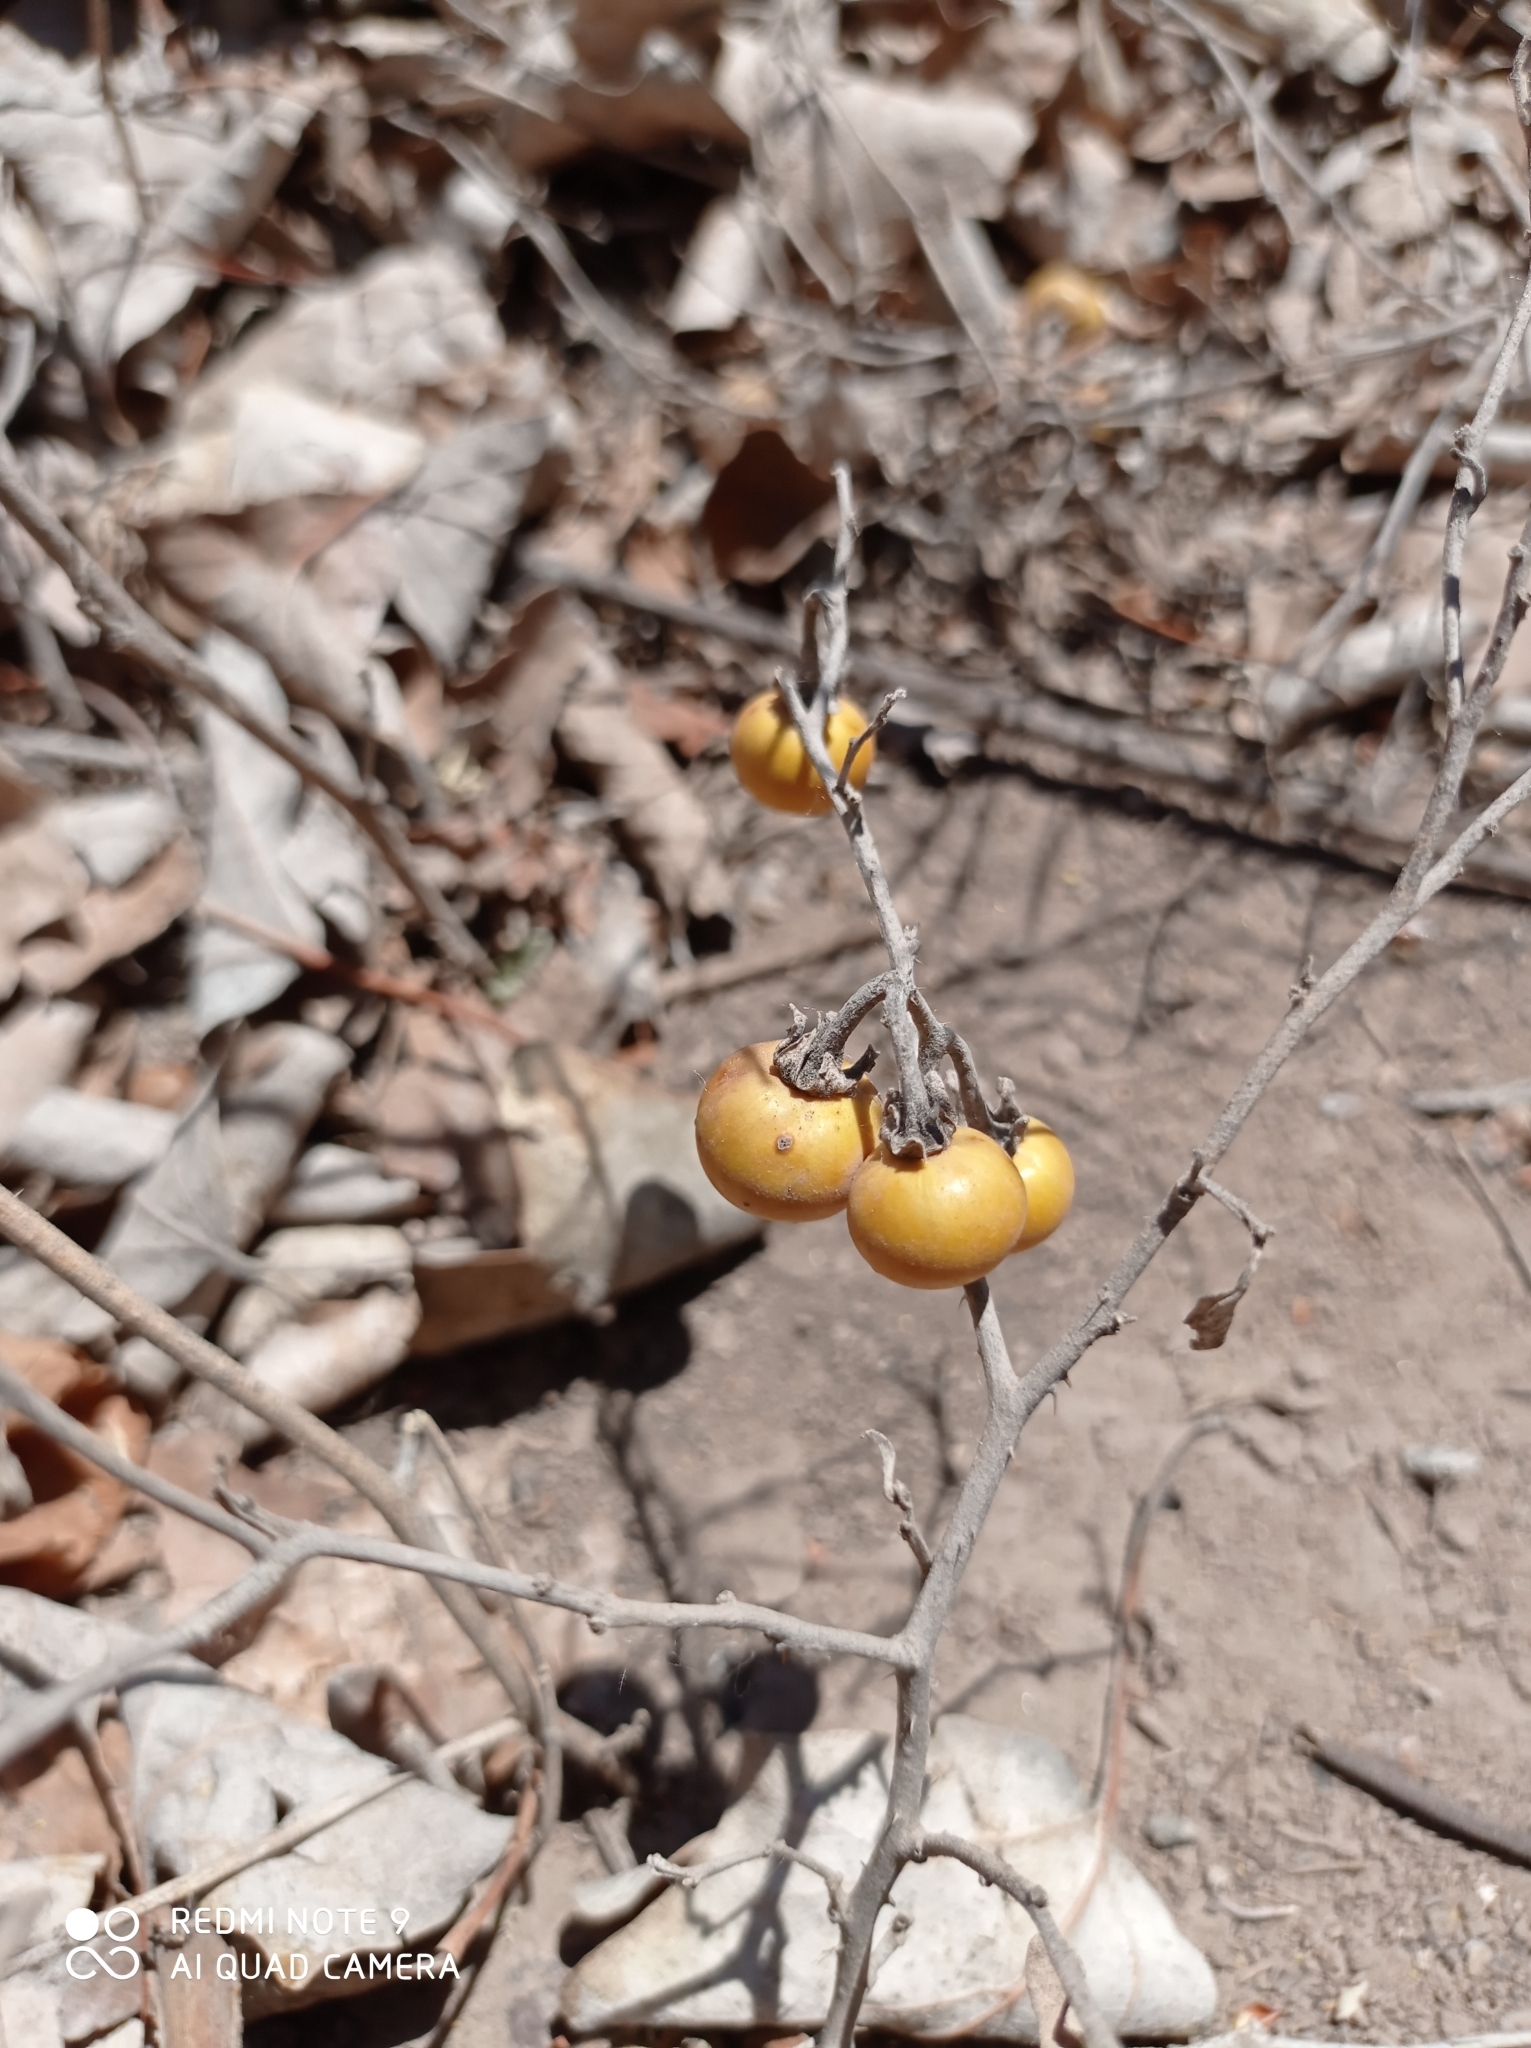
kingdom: Plantae
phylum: Tracheophyta
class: Magnoliopsida
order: Solanales
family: Solanaceae
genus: Solanum
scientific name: Solanum elaeagnifolium
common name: Silverleaf nightshade
